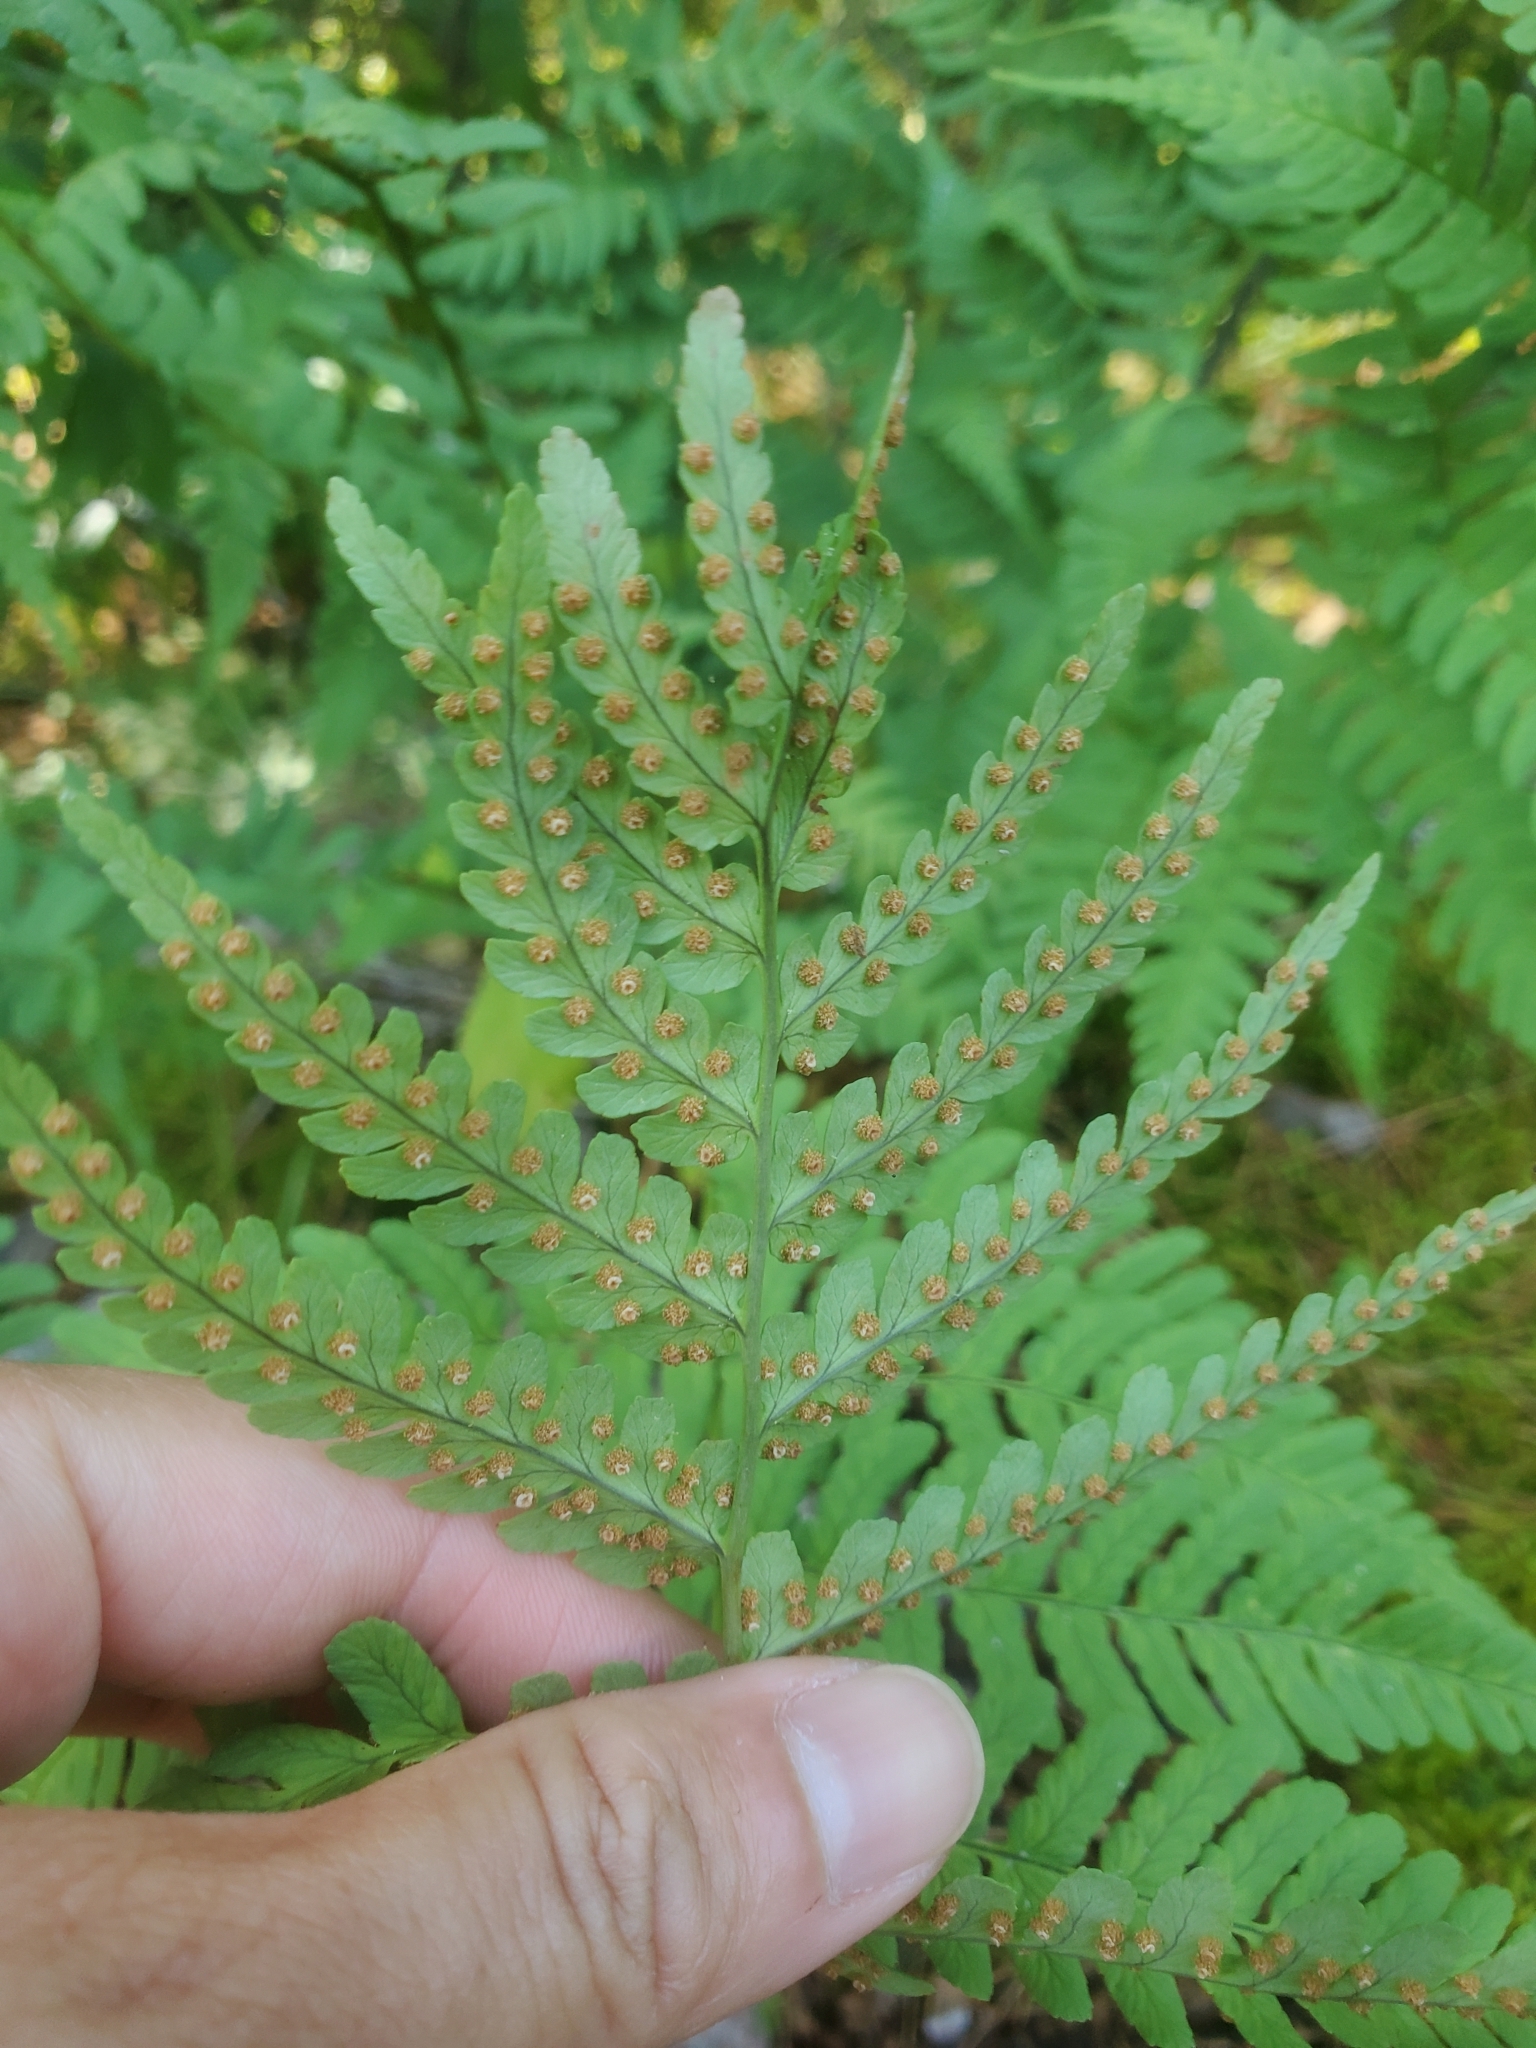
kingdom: Plantae
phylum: Tracheophyta
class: Polypodiopsida
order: Polypodiales
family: Dryopteridaceae
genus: Dryopteris
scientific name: Dryopteris marginalis
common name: Marginal wood fern
